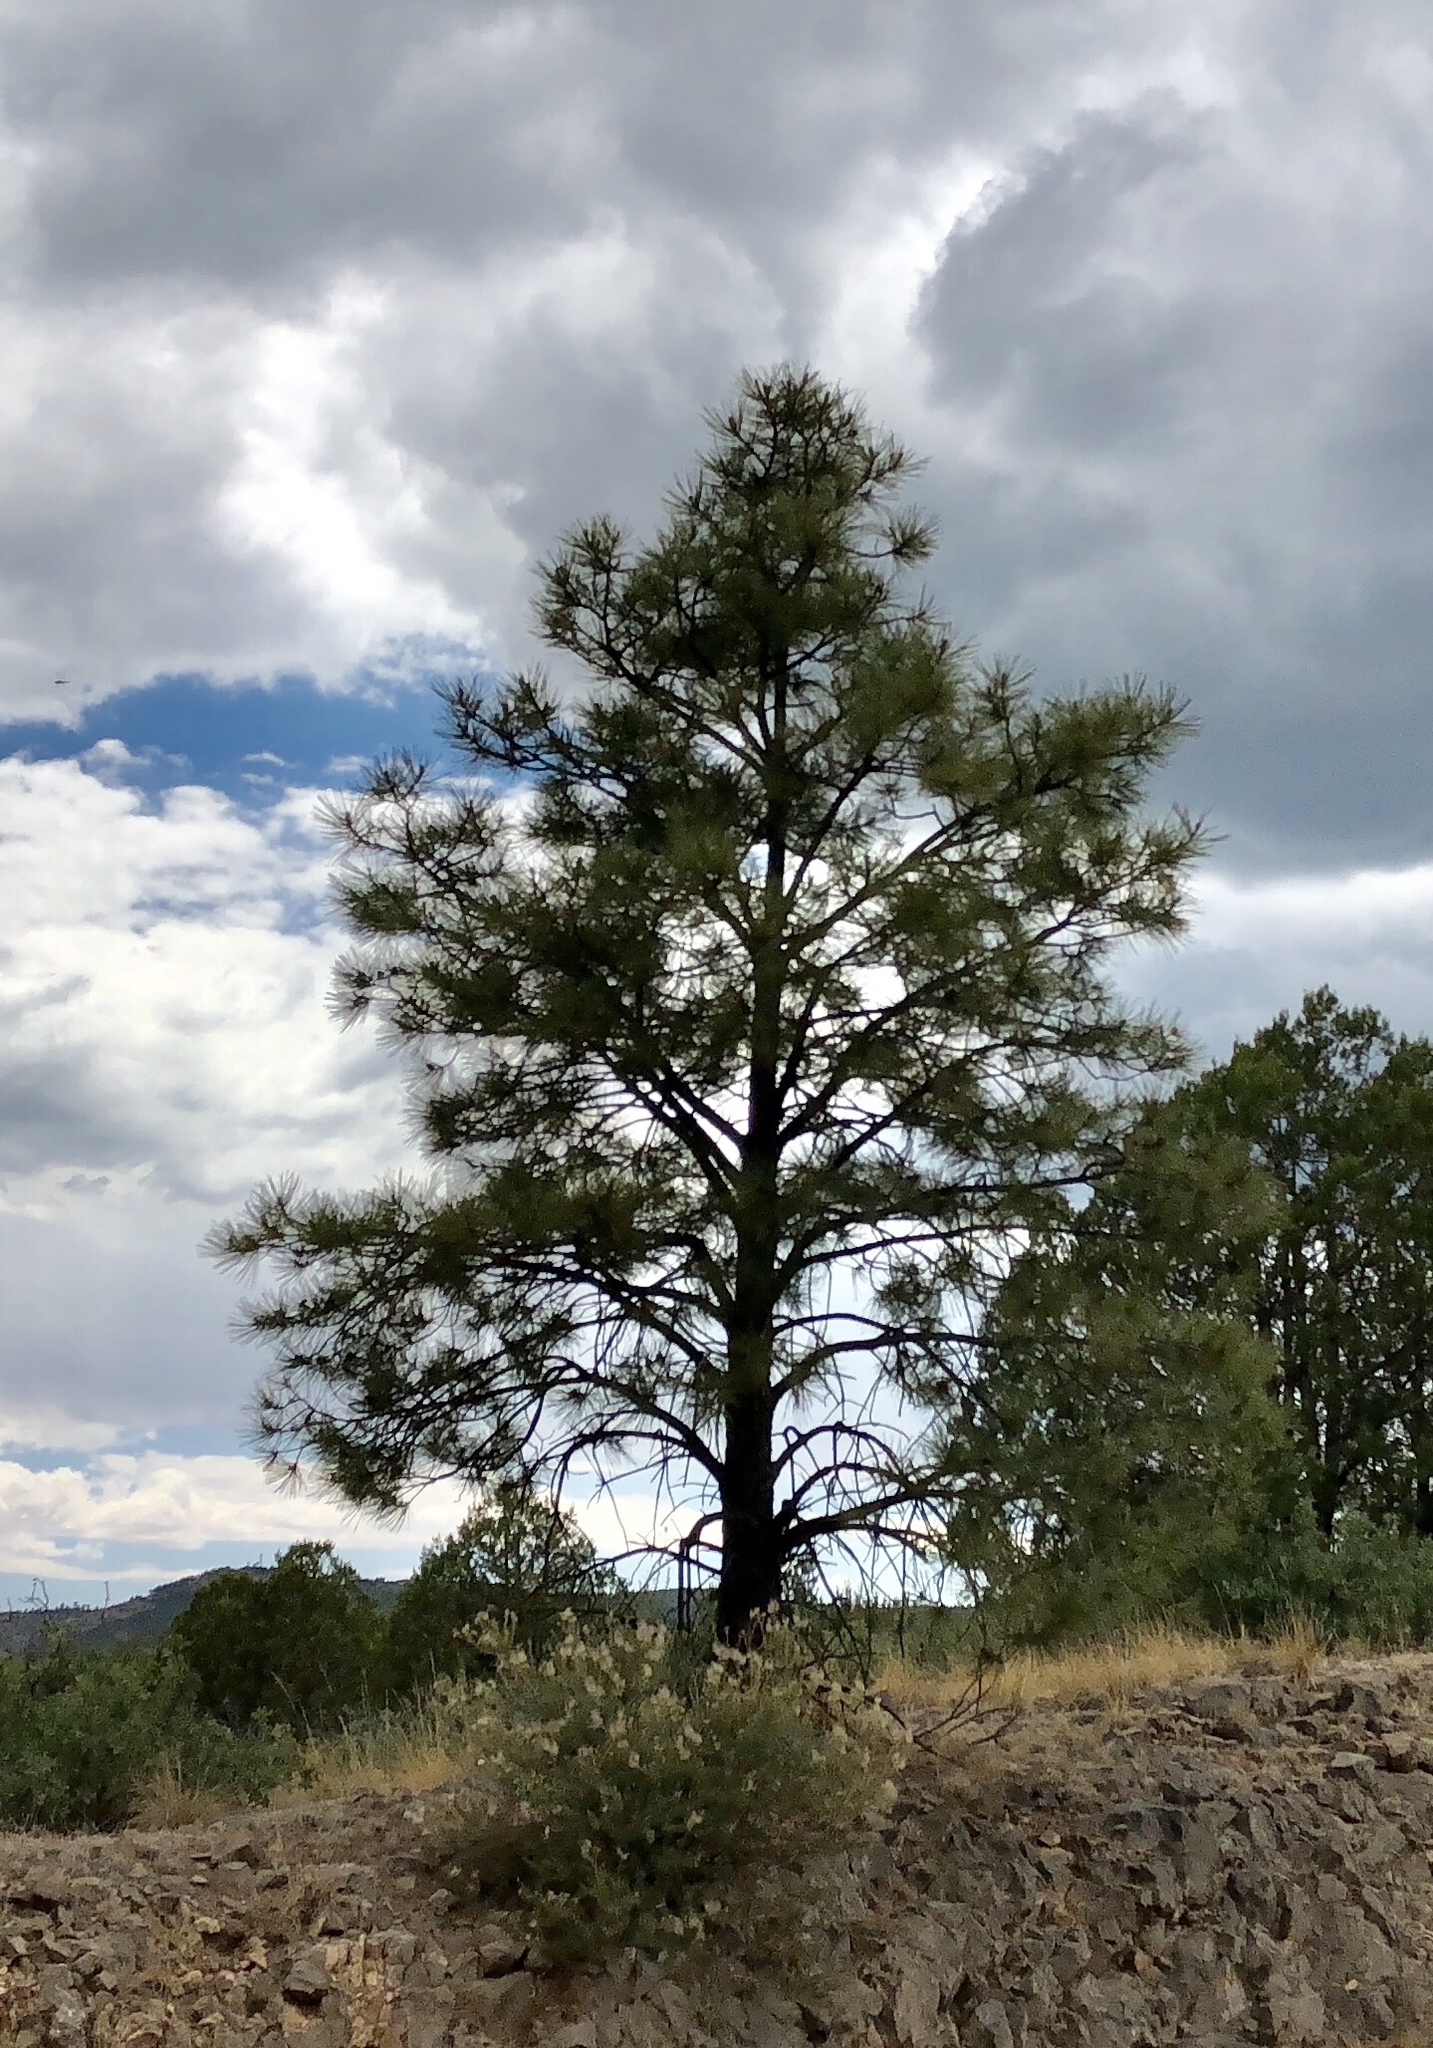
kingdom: Plantae
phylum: Tracheophyta
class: Pinopsida
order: Pinales
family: Pinaceae
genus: Pinus
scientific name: Pinus ponderosa
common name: Western yellow-pine
